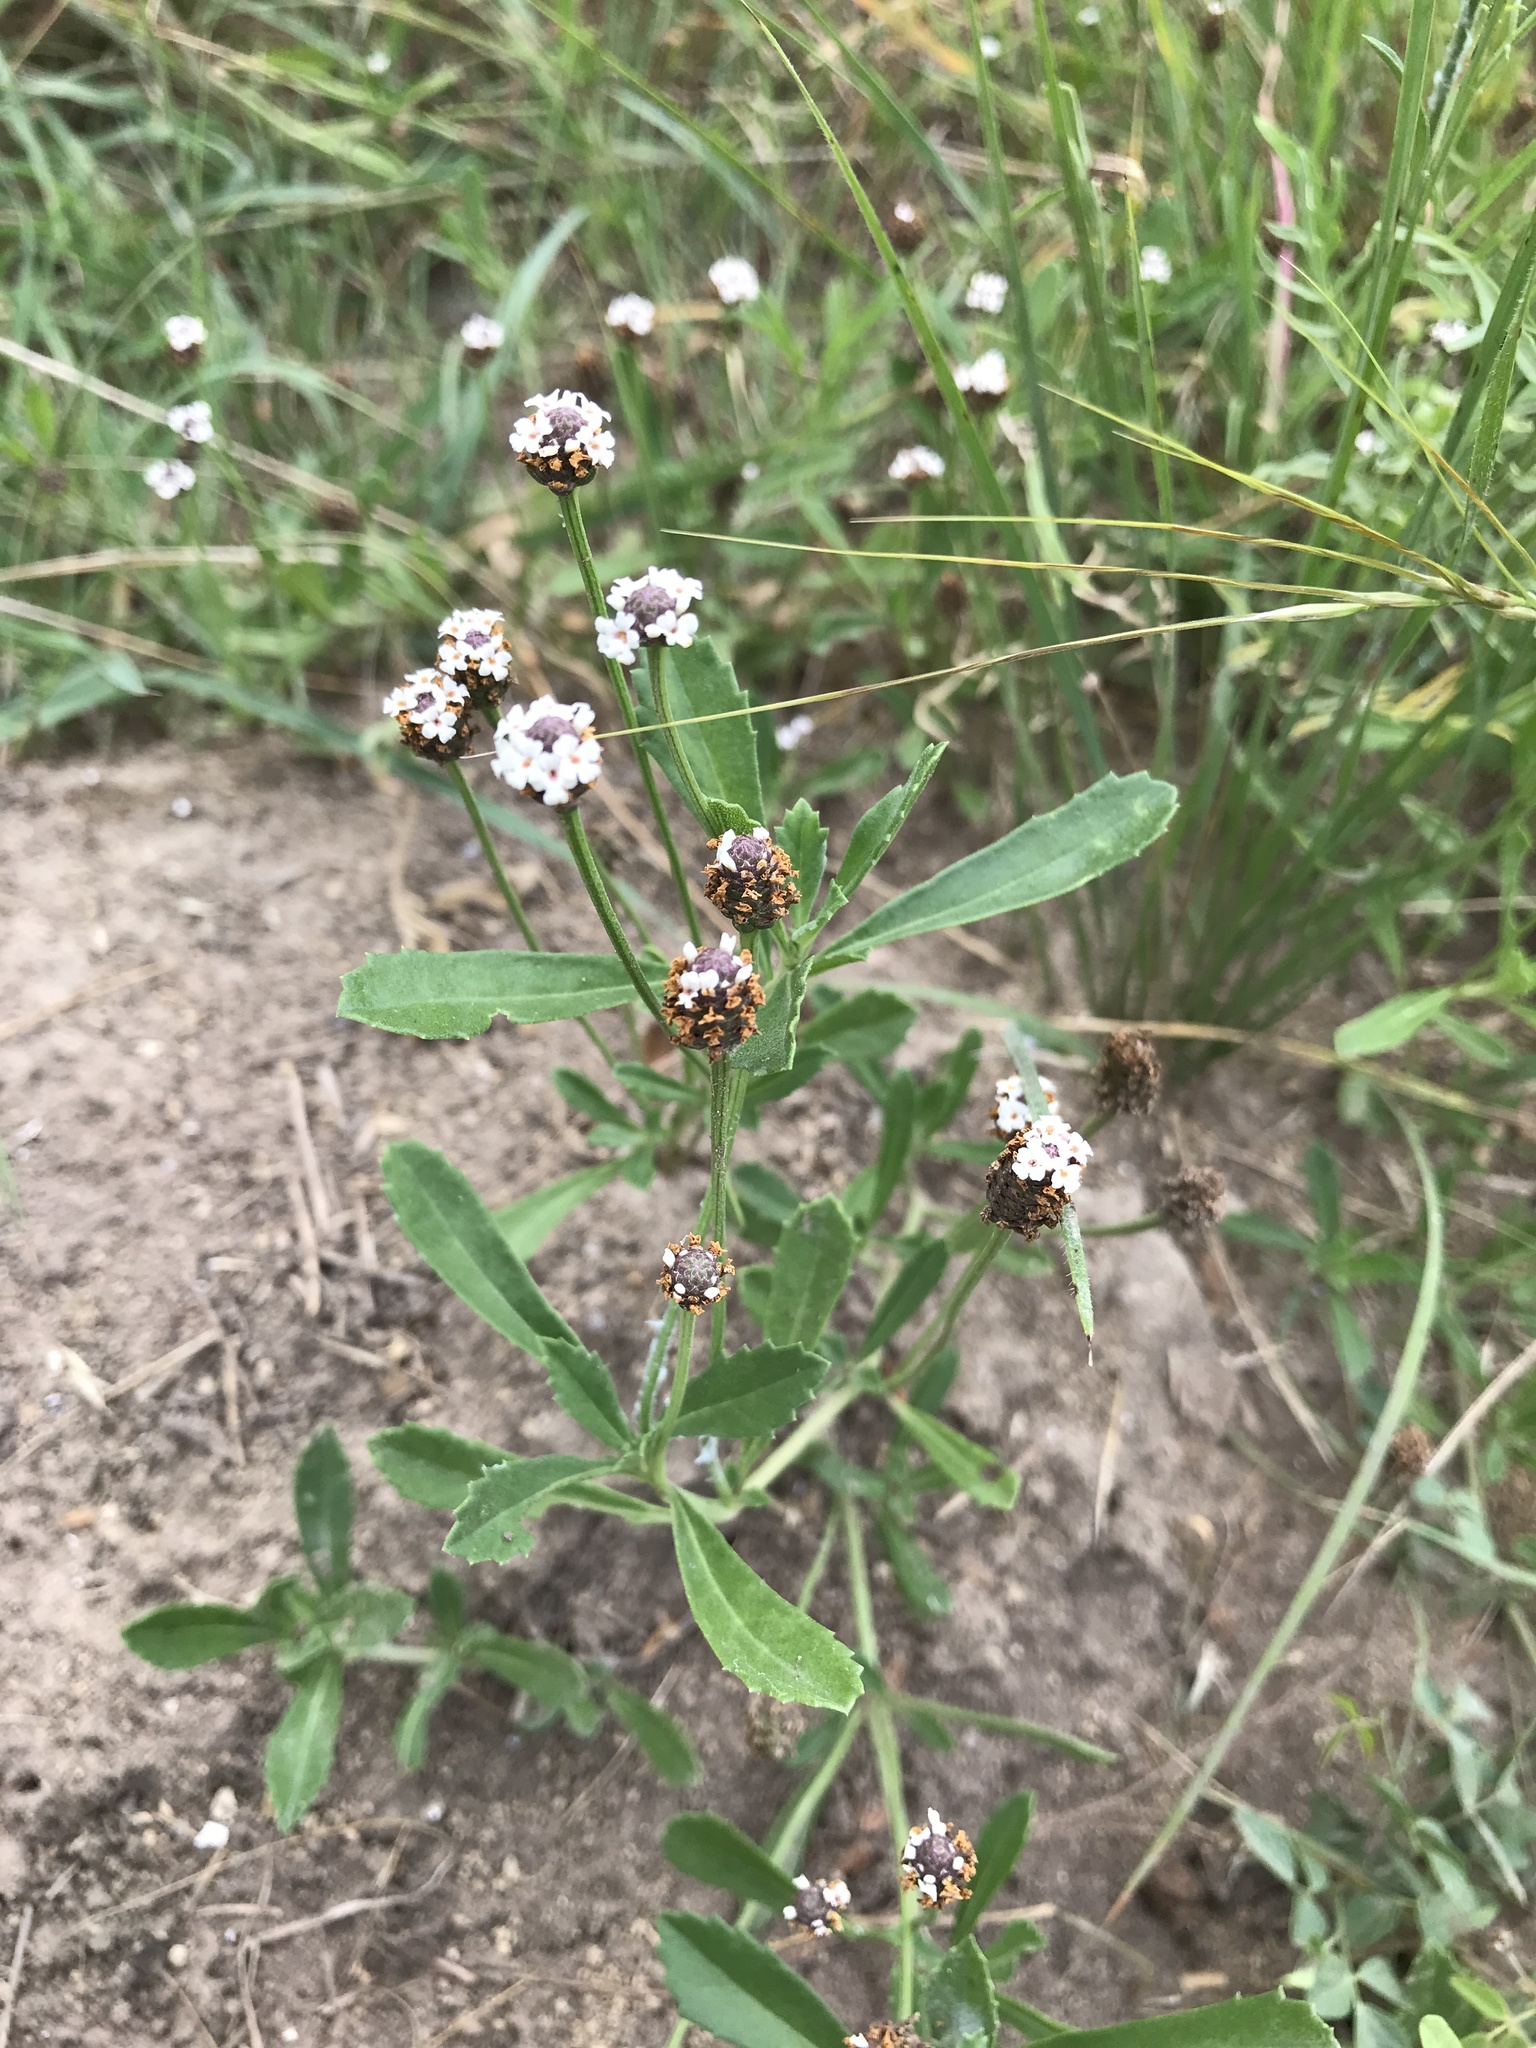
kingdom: Plantae
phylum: Tracheophyta
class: Magnoliopsida
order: Lamiales
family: Verbenaceae
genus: Phyla
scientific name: Phyla nodiflora
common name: Frogfruit
